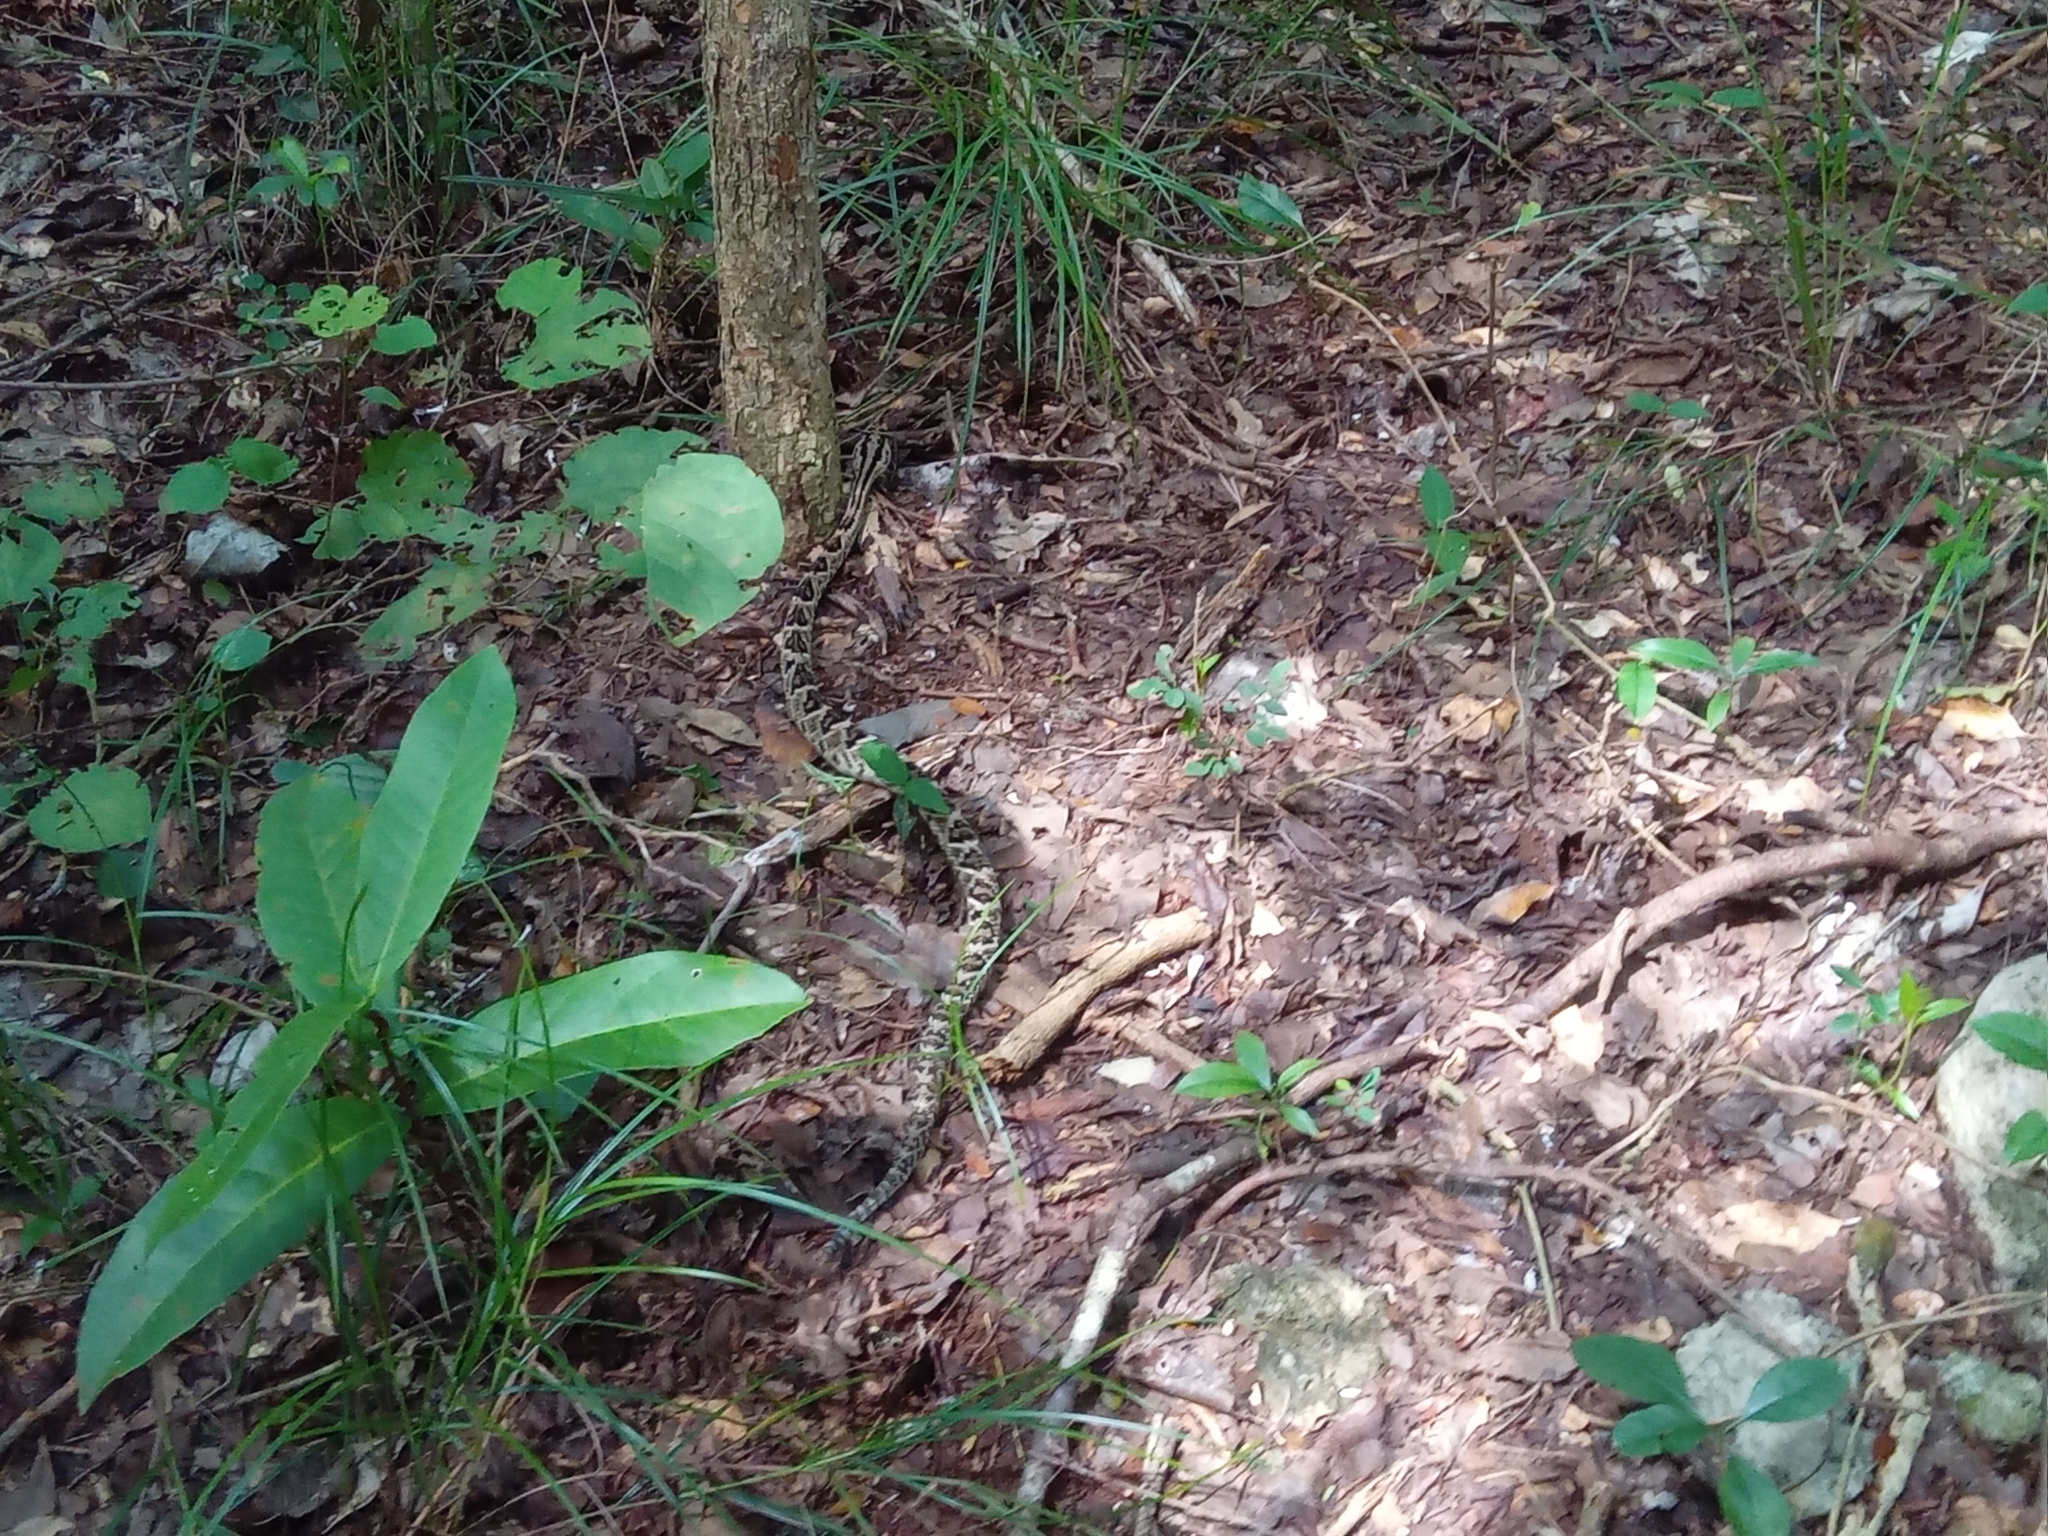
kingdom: Animalia
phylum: Chordata
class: Squamata
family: Viperidae
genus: Crotalus
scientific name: Crotalus tzabcan
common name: Yucatan neotropical rattlesnake
